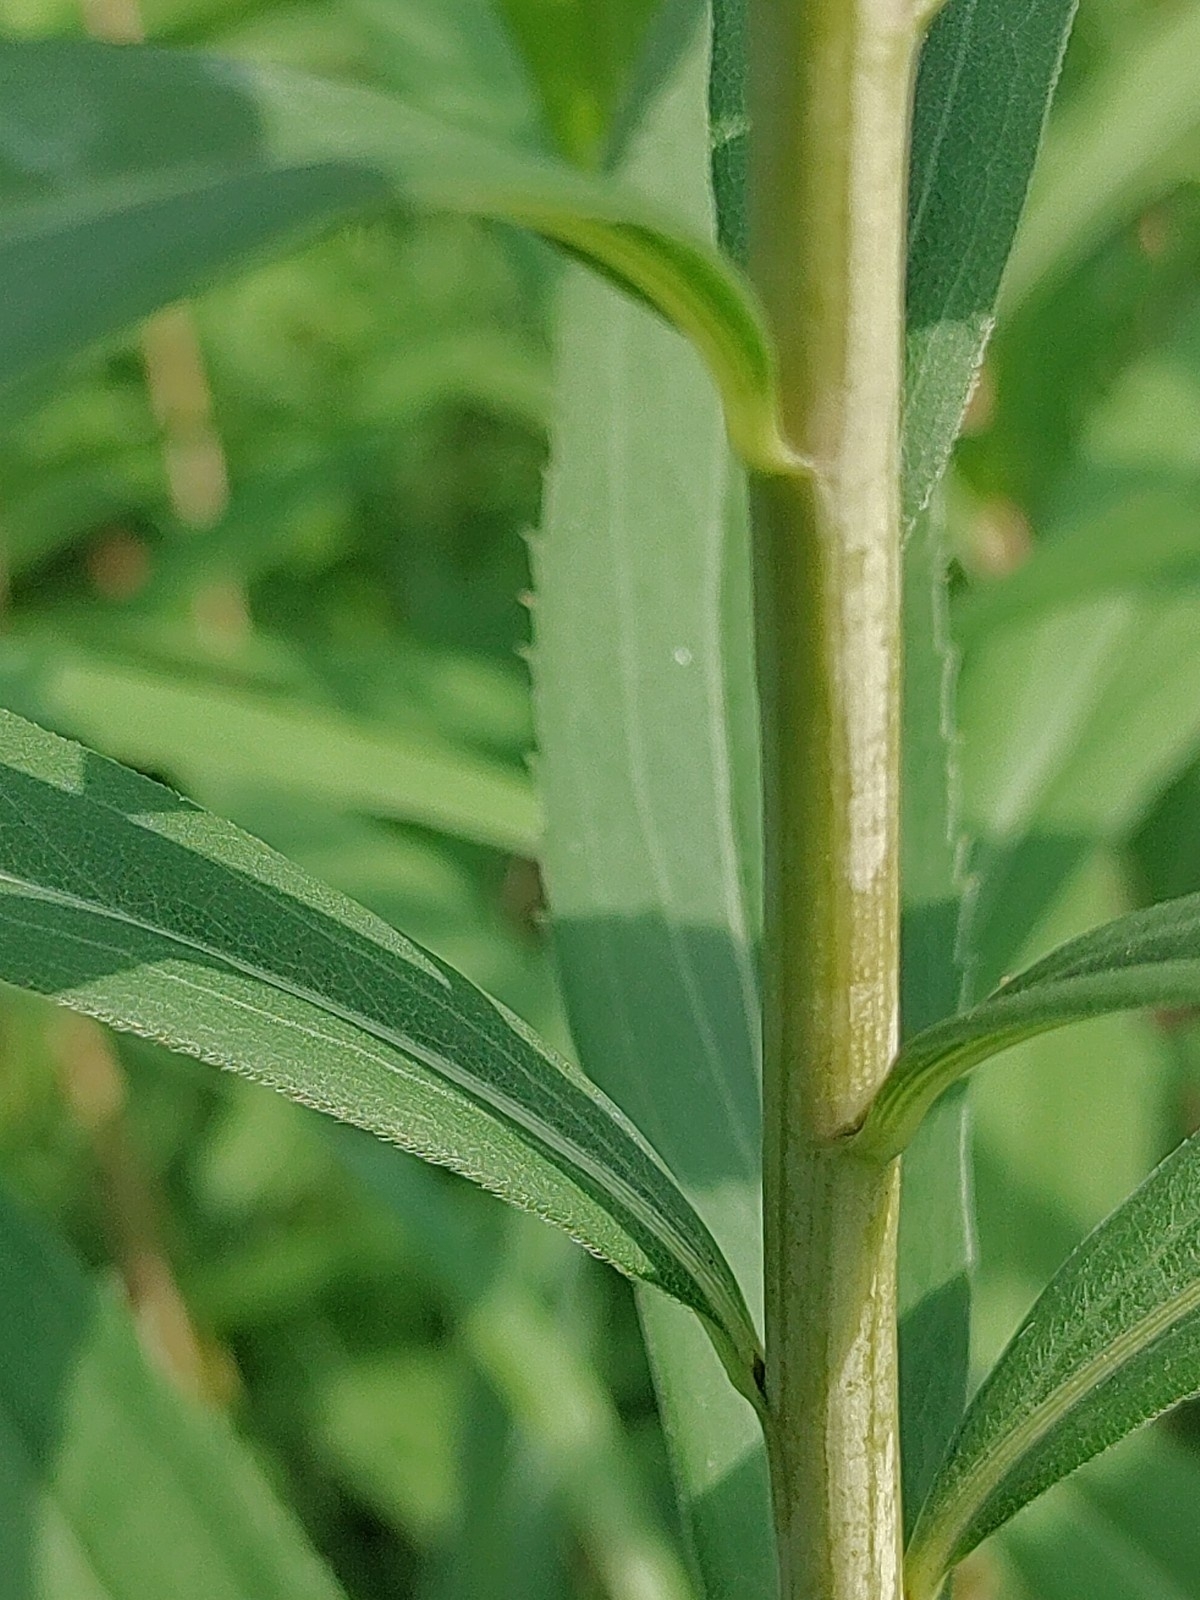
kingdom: Plantae
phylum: Tracheophyta
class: Magnoliopsida
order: Asterales
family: Asteraceae
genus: Solidago
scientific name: Solidago gigantea
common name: Giant goldenrod
